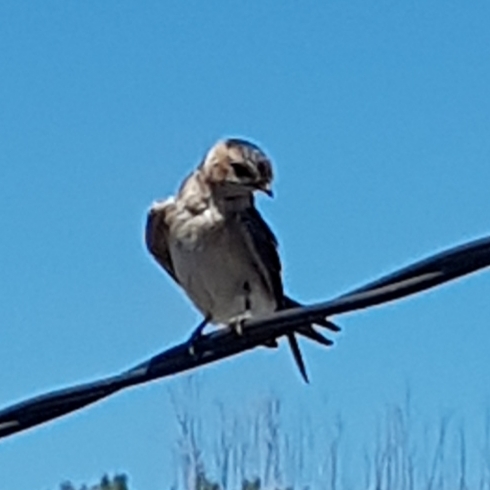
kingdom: Animalia
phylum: Chordata
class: Aves
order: Passeriformes
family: Hirundinidae
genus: Cecropis
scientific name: Cecropis daurica
